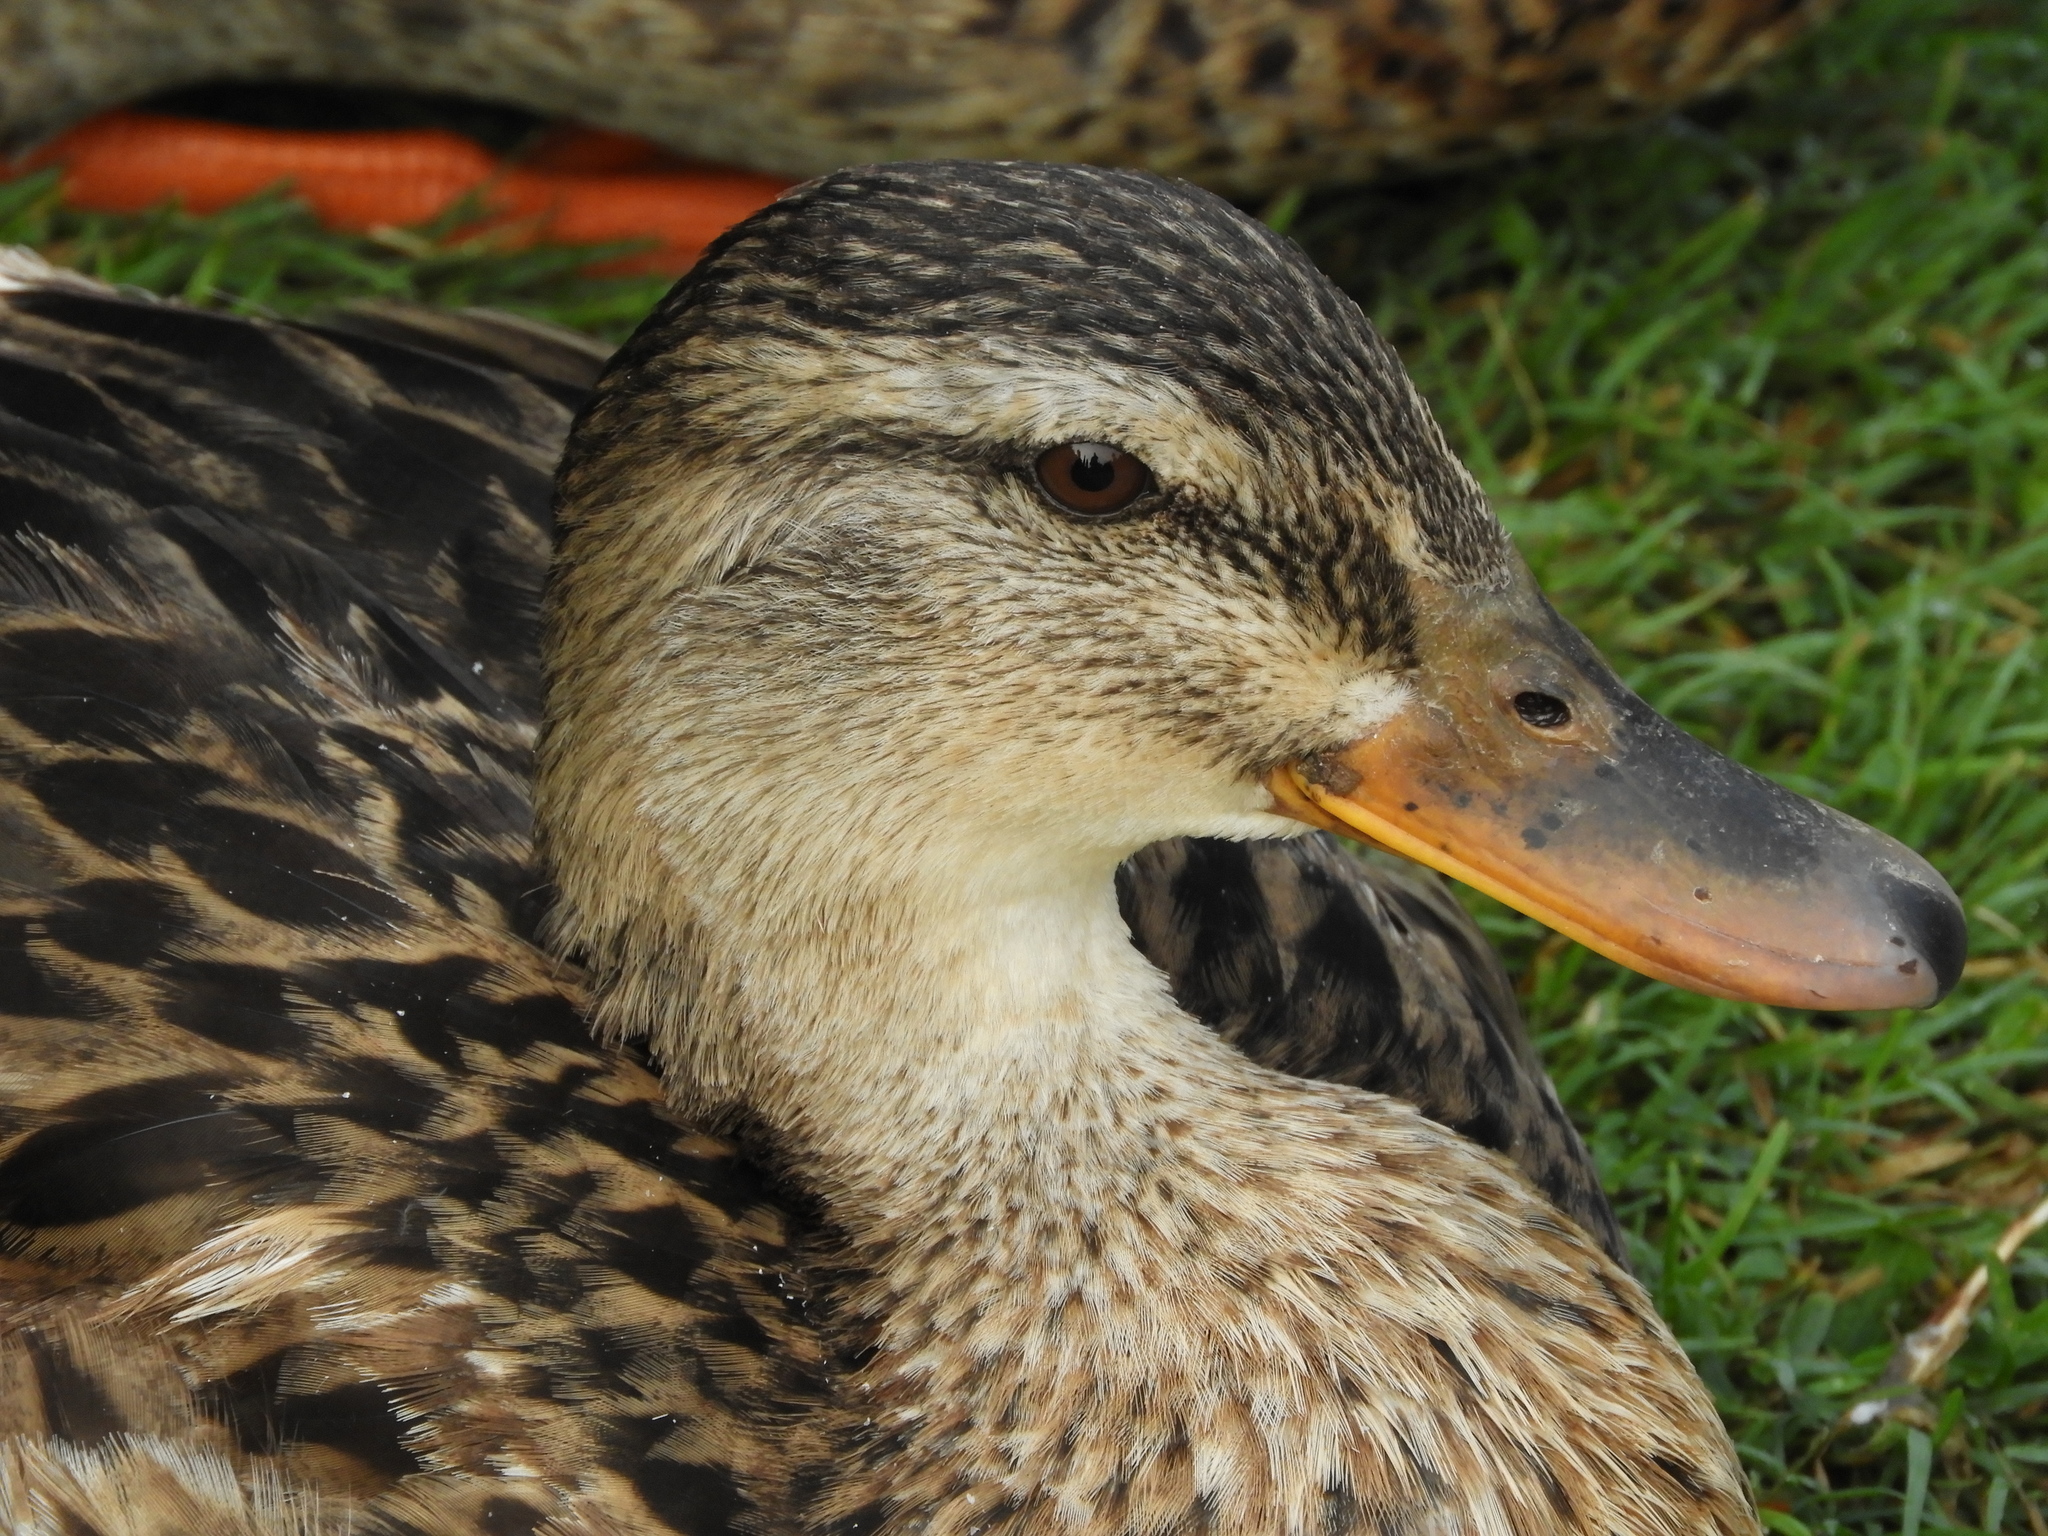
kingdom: Animalia
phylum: Chordata
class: Aves
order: Anseriformes
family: Anatidae
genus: Anas
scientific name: Anas platyrhynchos
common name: Mallard
